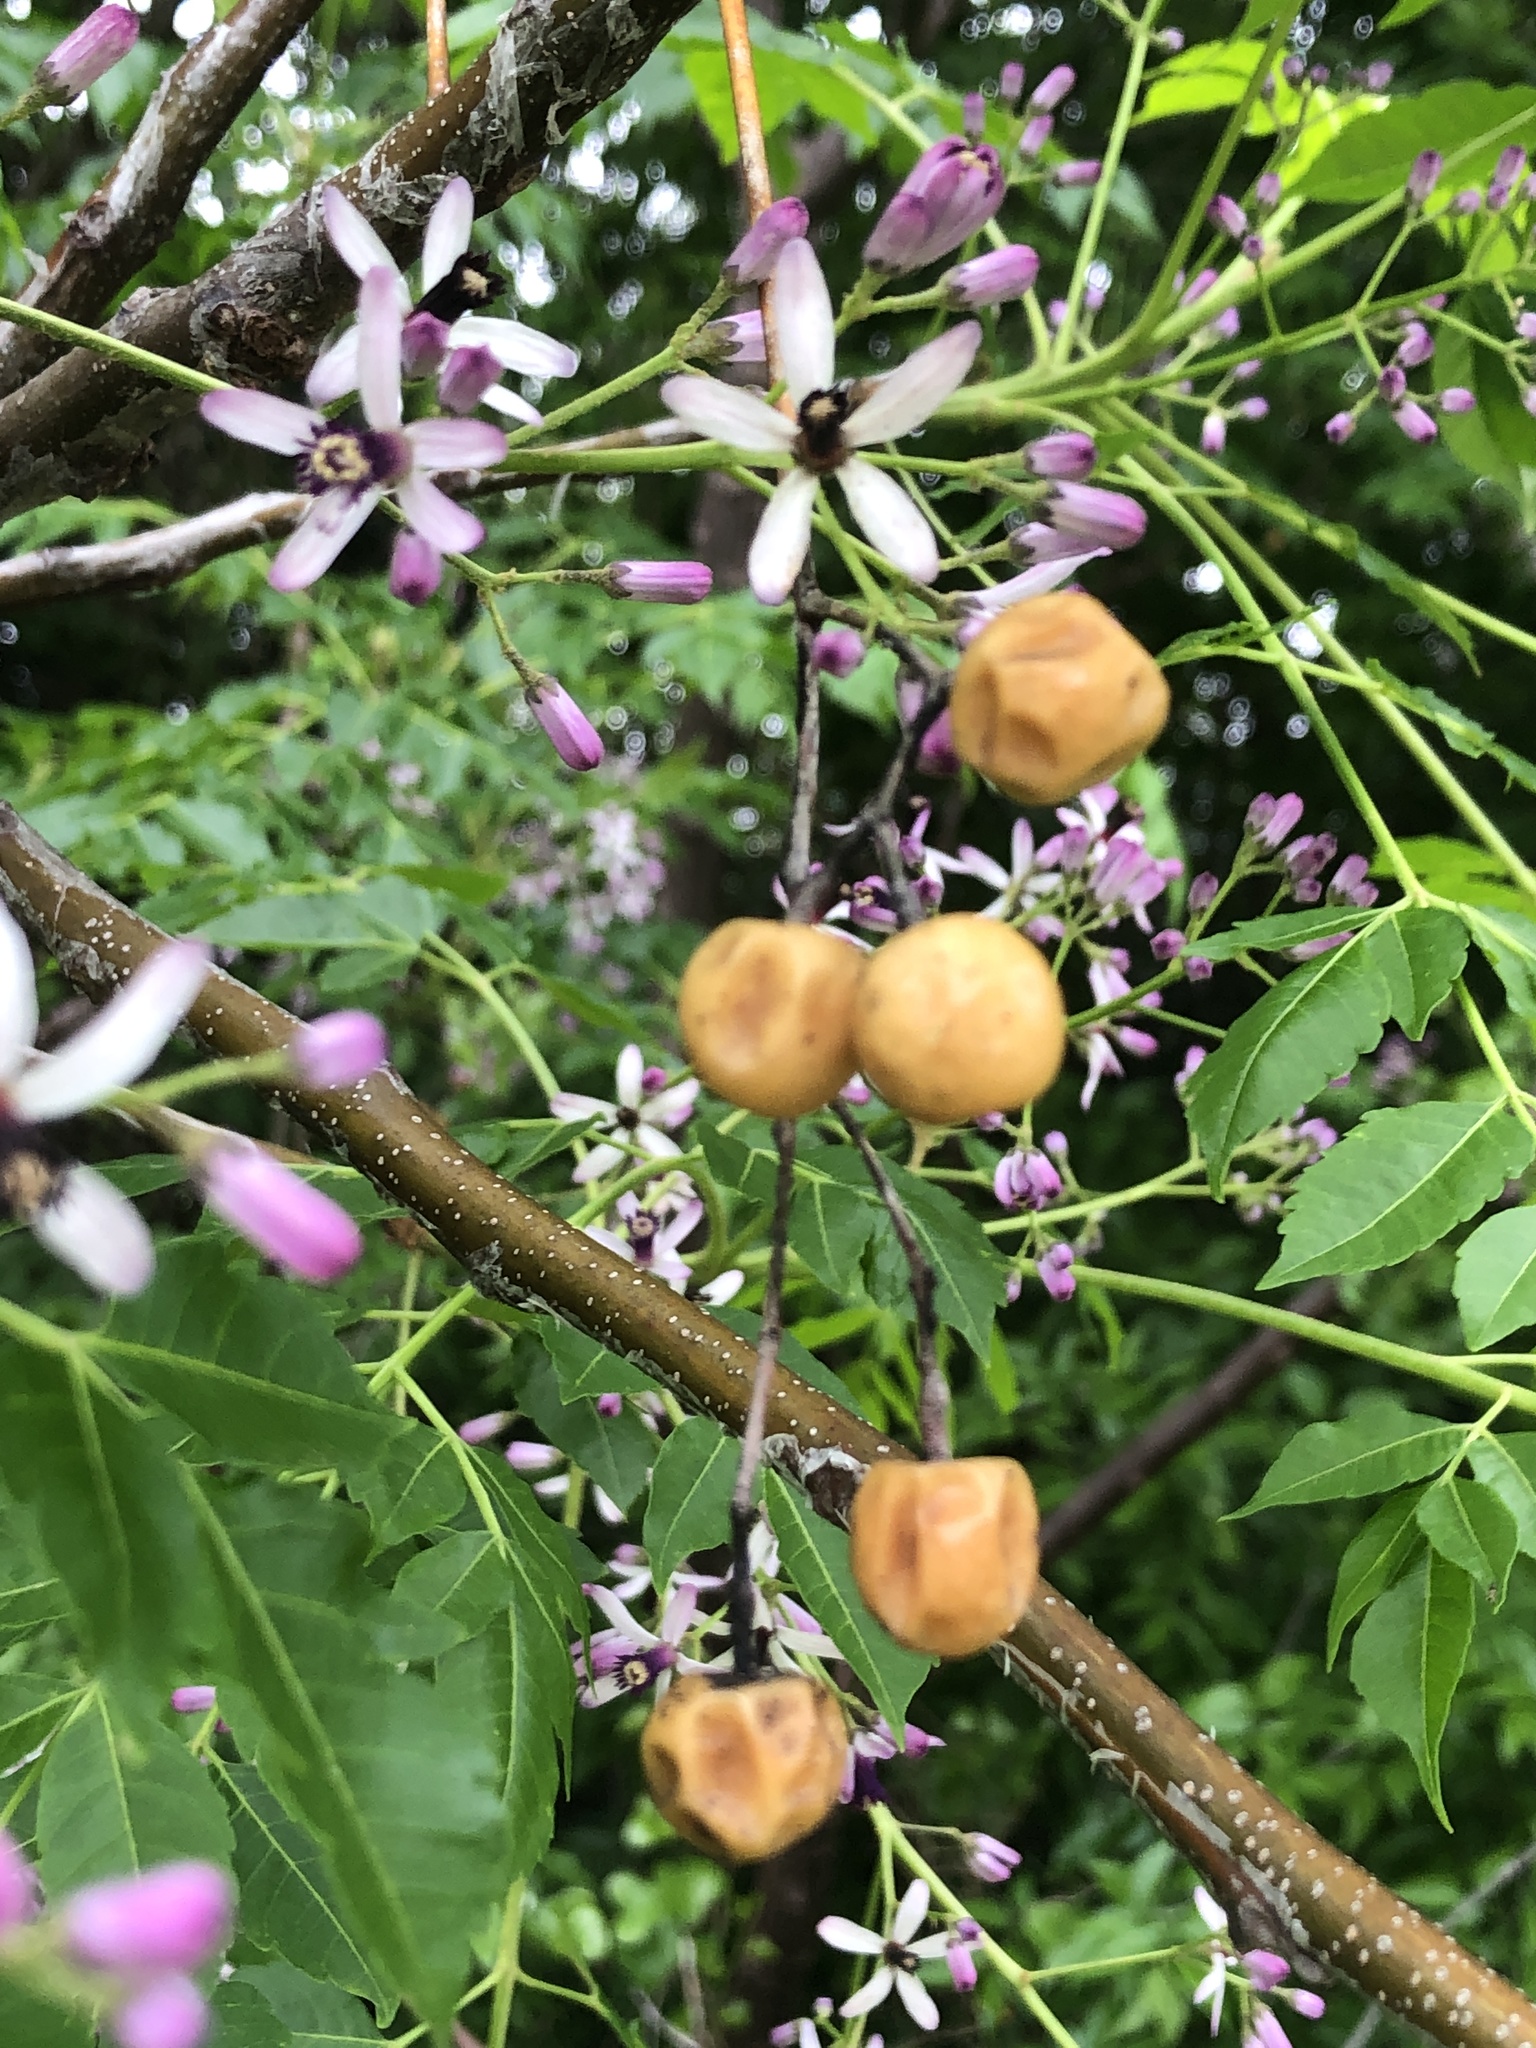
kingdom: Plantae
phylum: Tracheophyta
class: Magnoliopsida
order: Sapindales
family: Meliaceae
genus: Melia
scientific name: Melia azedarach
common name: Chinaberrytree
